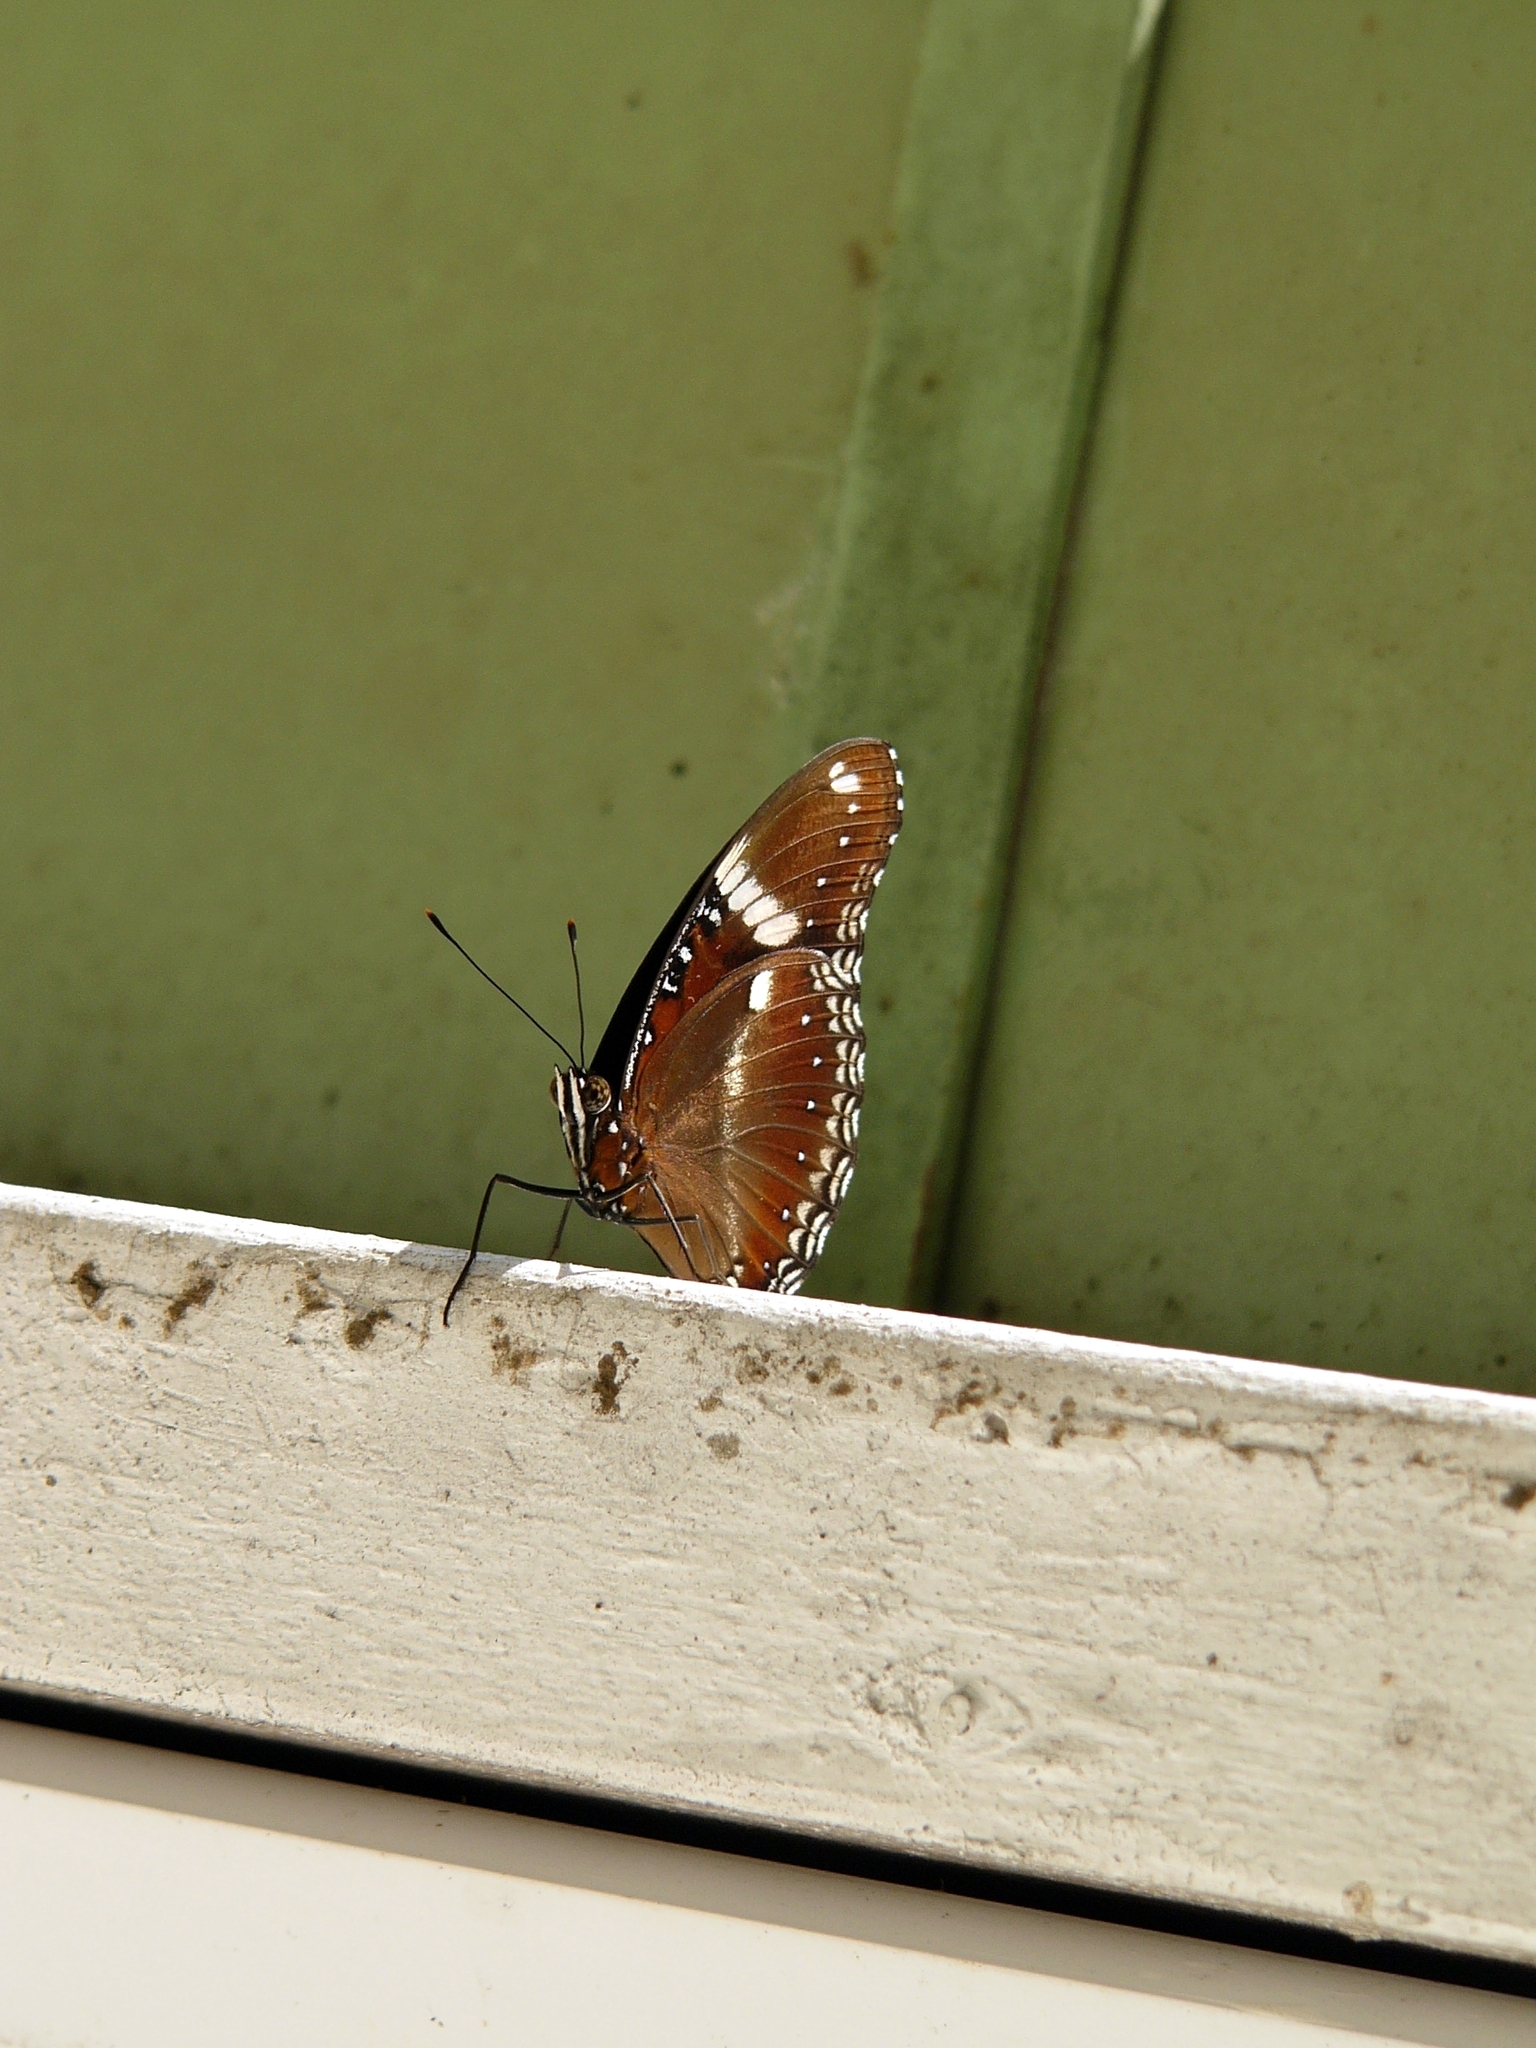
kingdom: Animalia
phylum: Arthropoda
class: Insecta
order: Lepidoptera
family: Nymphalidae
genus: Hypolimnas
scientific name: Hypolimnas bolina
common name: Great eggfly
